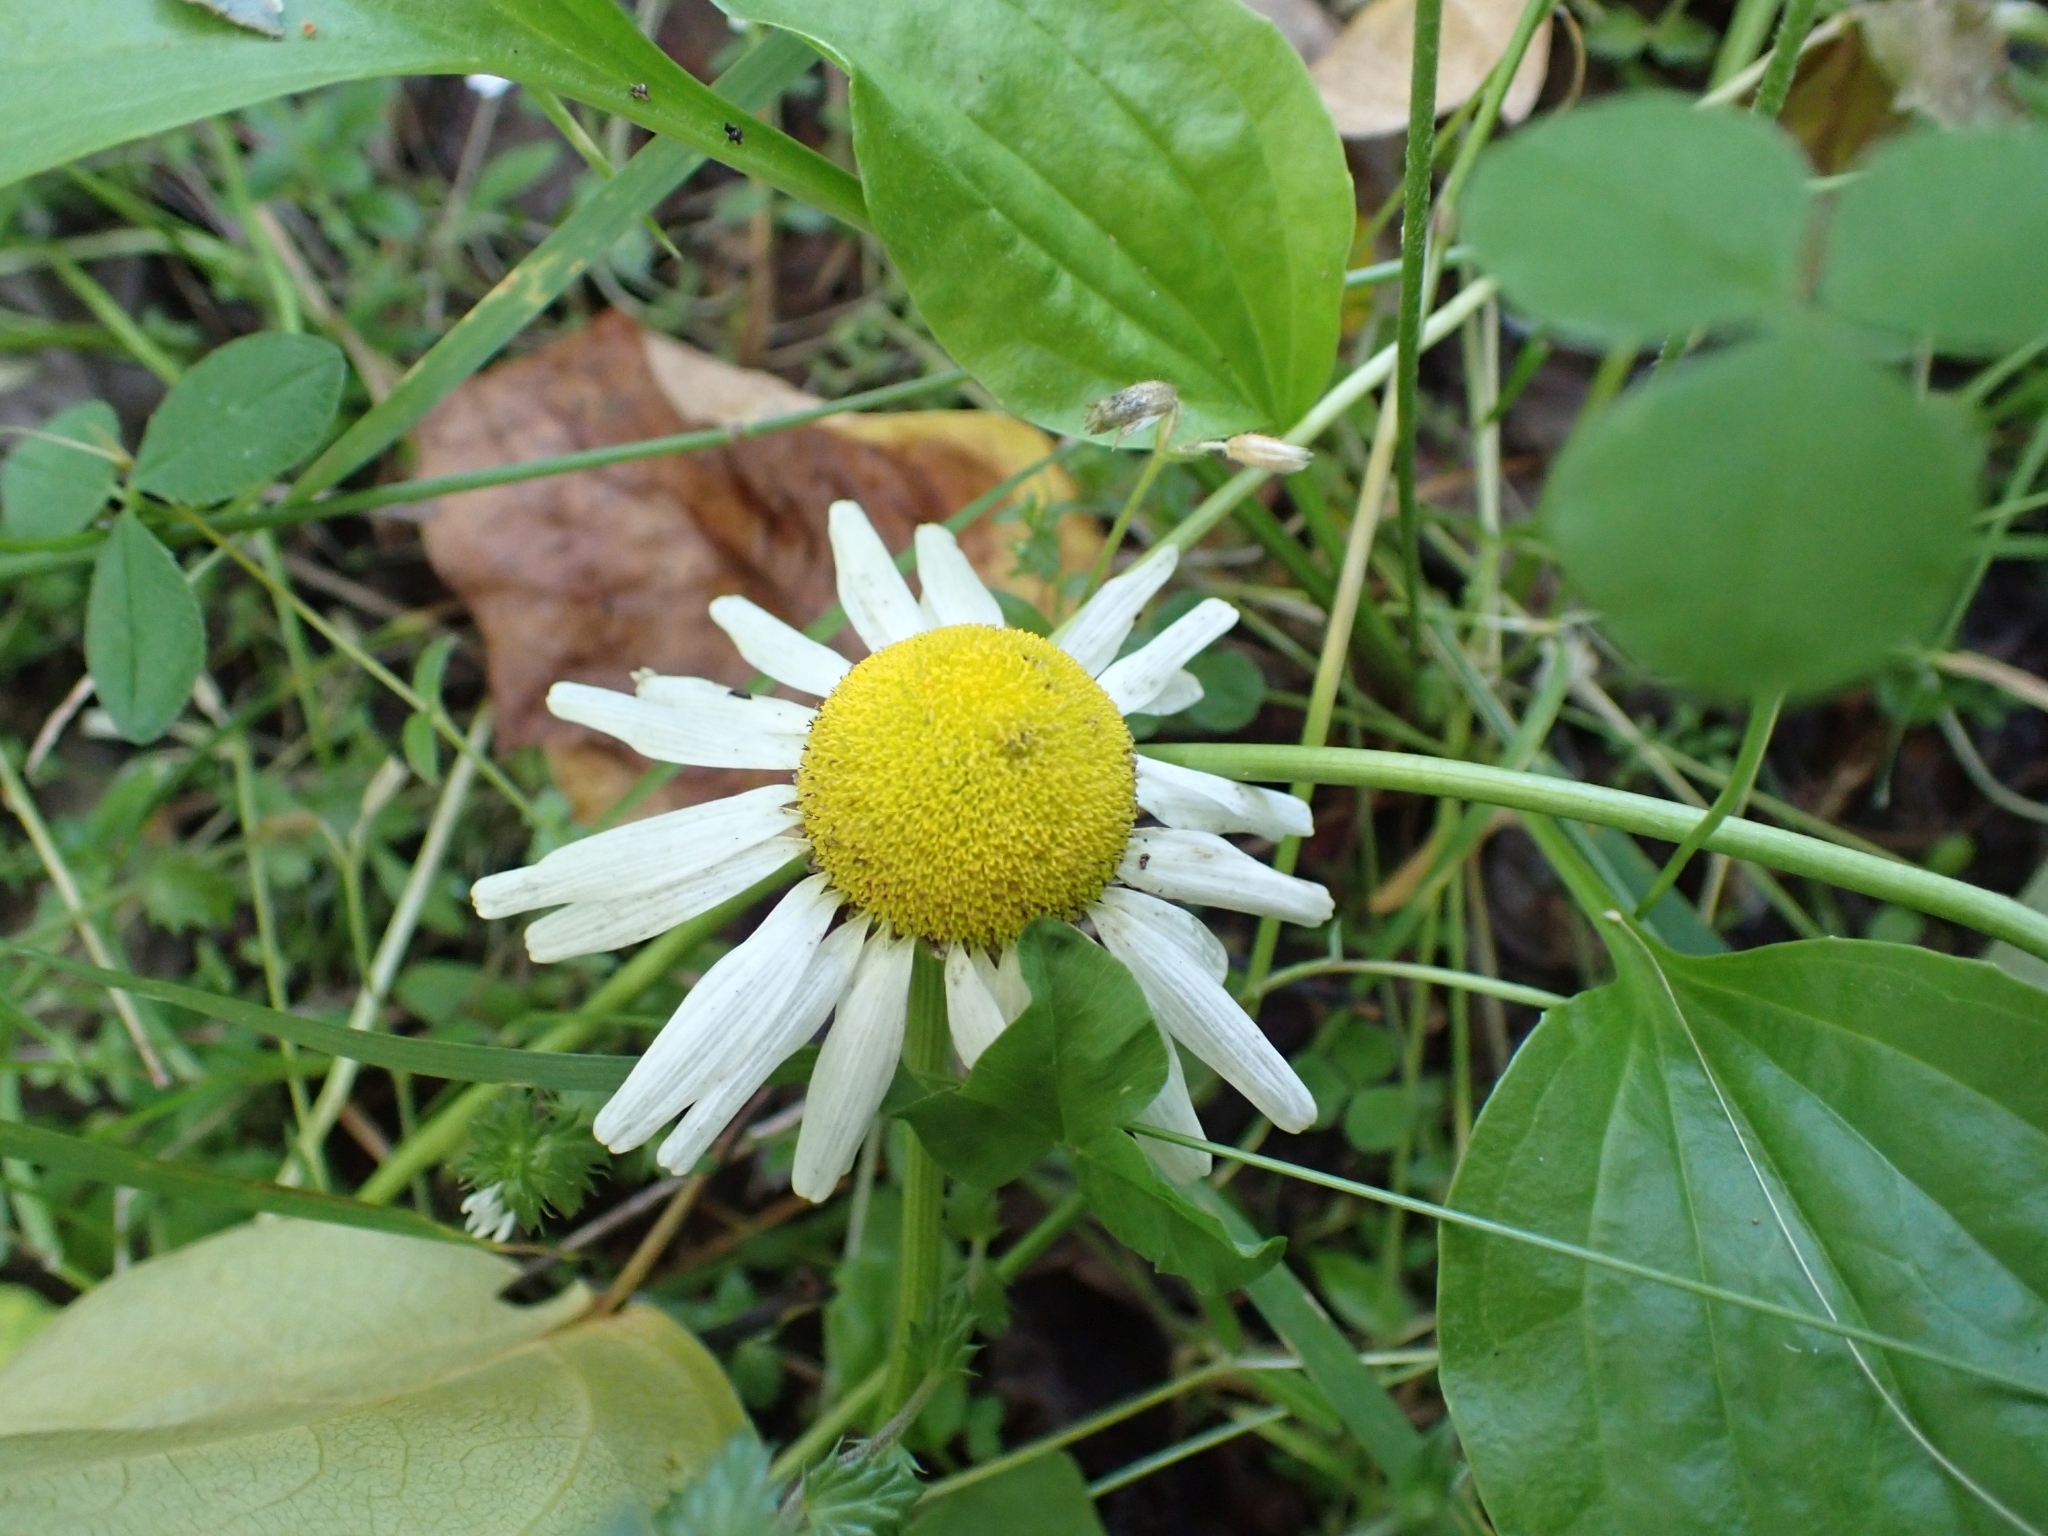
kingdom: Plantae
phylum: Tracheophyta
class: Magnoliopsida
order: Asterales
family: Asteraceae
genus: Leucanthemum
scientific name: Leucanthemum vulgare
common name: Oxeye daisy
